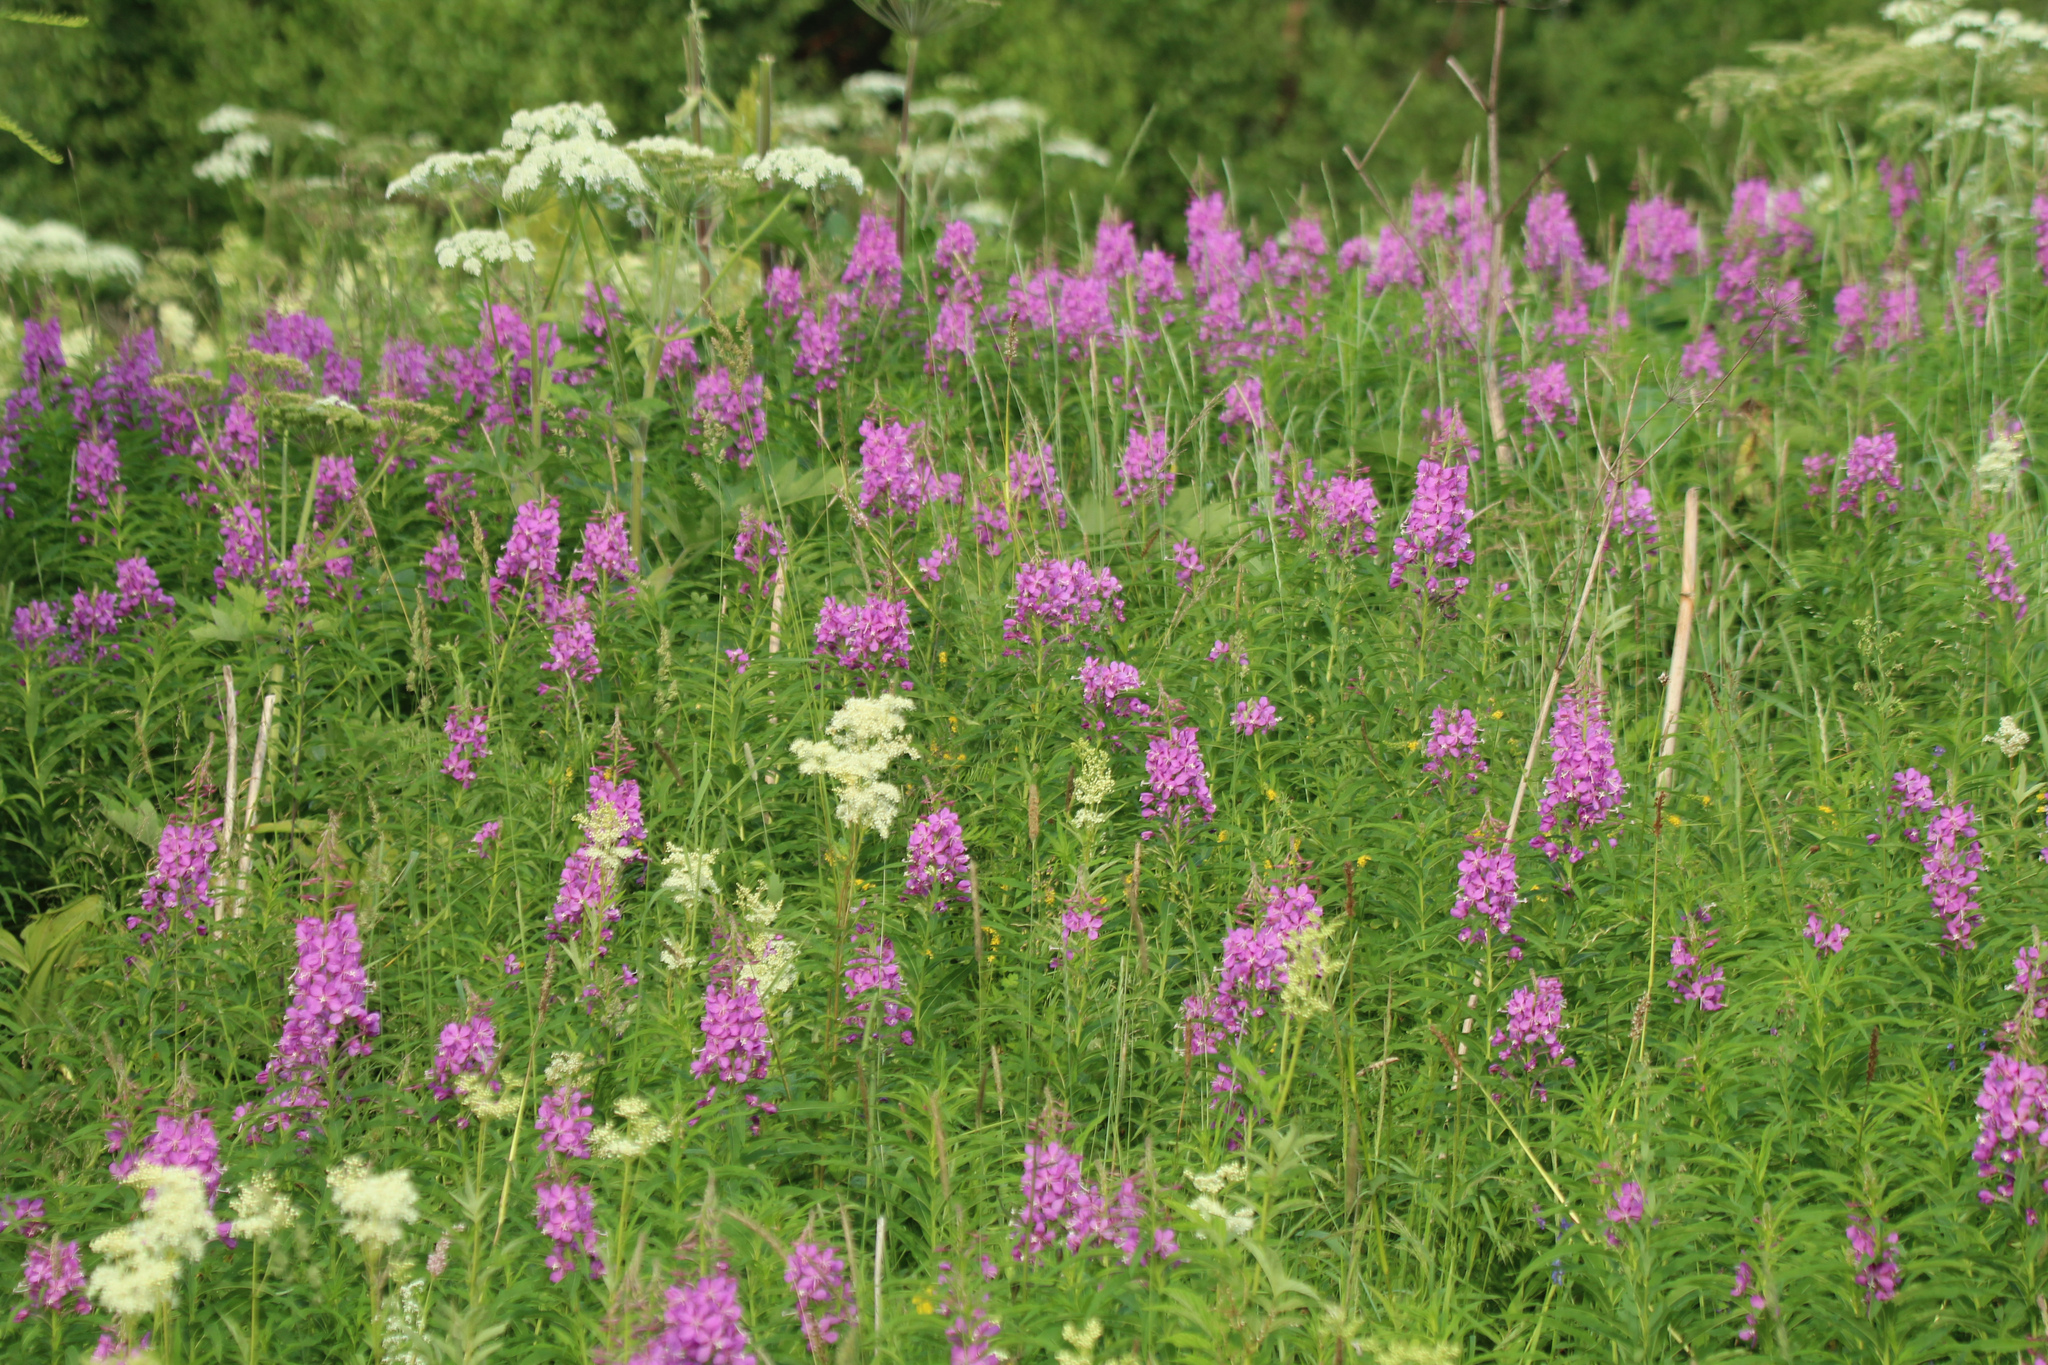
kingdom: Plantae
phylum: Tracheophyta
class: Magnoliopsida
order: Myrtales
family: Onagraceae
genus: Chamaenerion
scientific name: Chamaenerion angustifolium
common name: Fireweed
